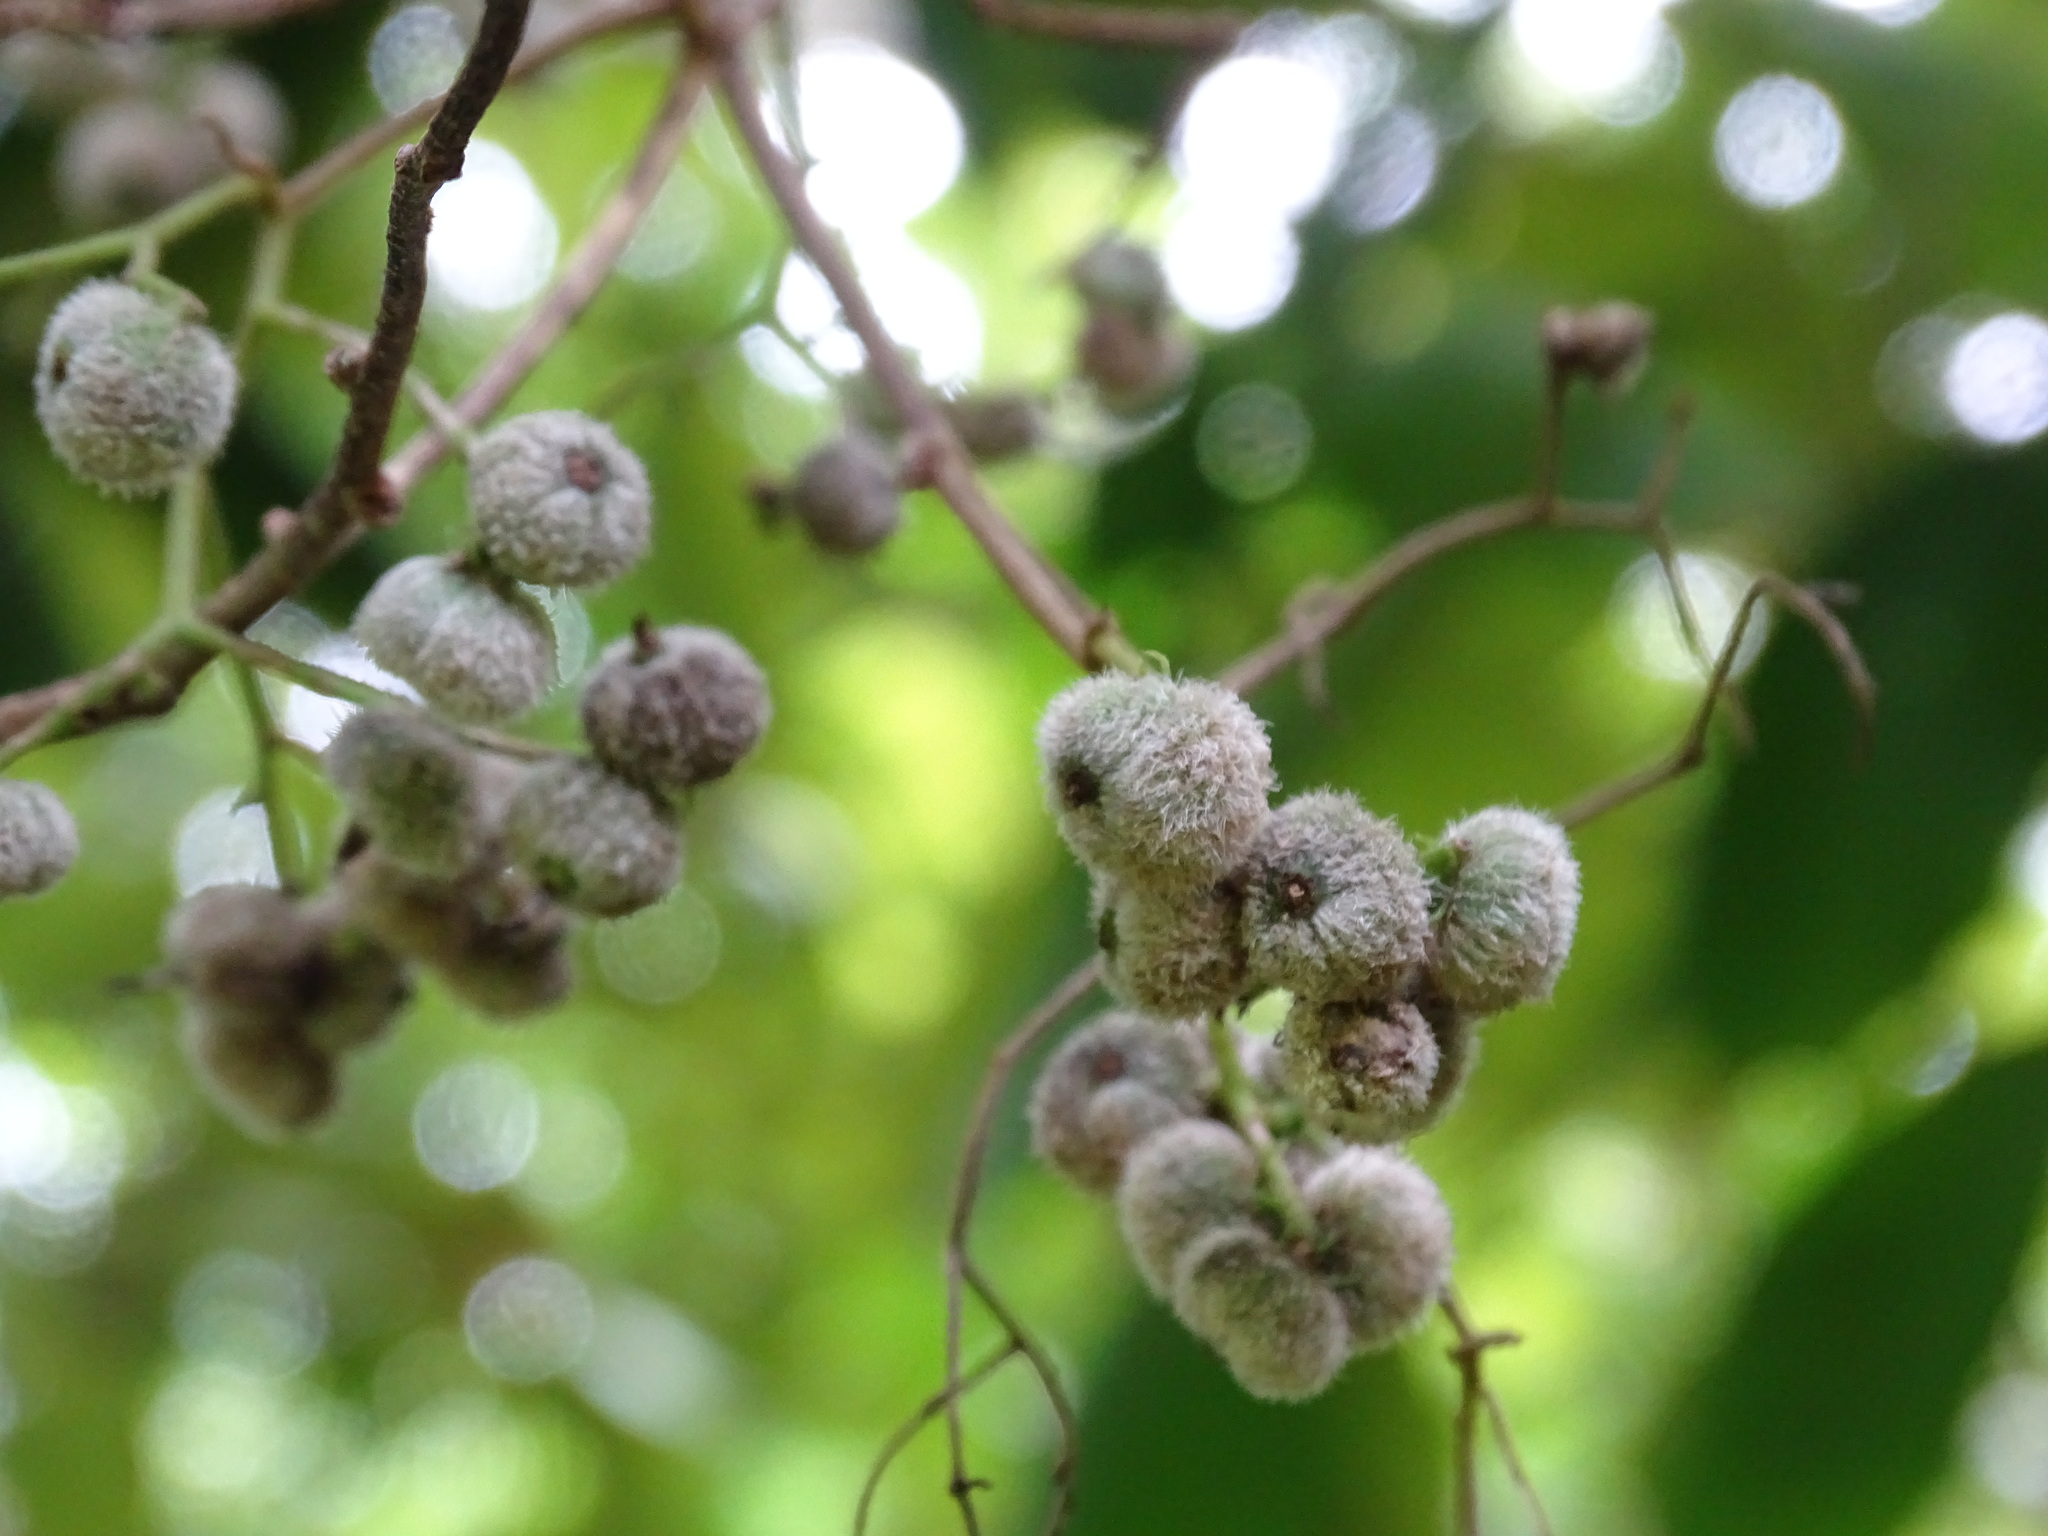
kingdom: Plantae
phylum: Tracheophyta
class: Magnoliopsida
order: Boraginales
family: Heliotropiaceae
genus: Myriopus
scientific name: Myriopus volubilis
